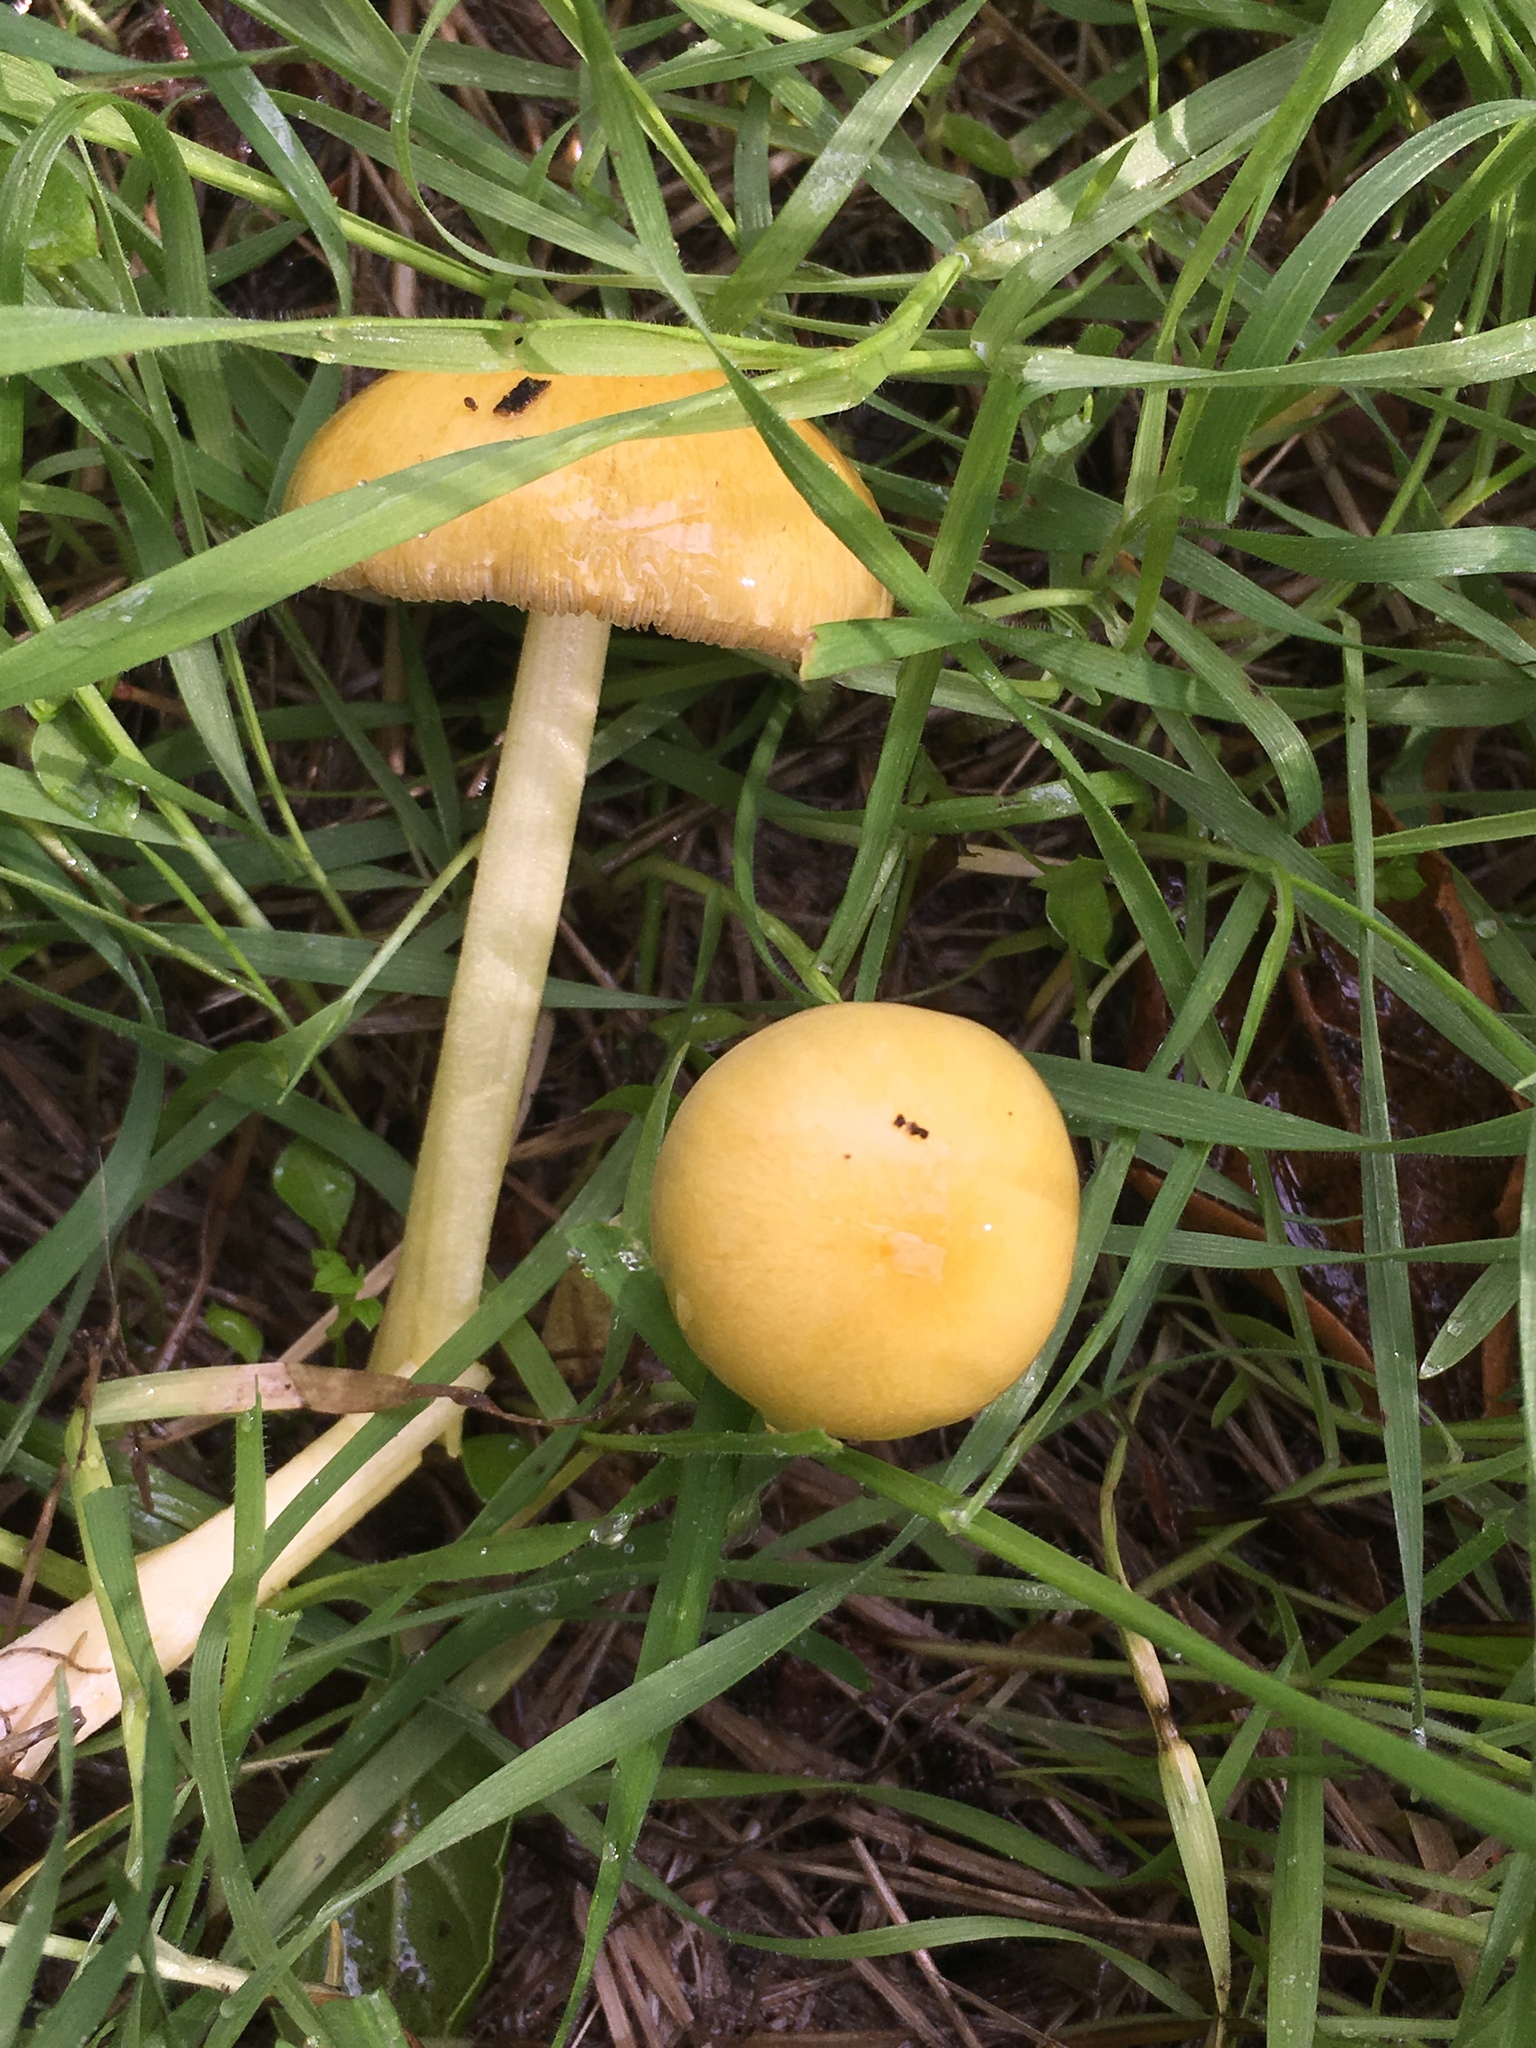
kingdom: Fungi
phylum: Basidiomycota
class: Agaricomycetes
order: Agaricales
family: Bolbitiaceae
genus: Bolbitius
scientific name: Bolbitius titubans
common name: Yellow fieldcap
